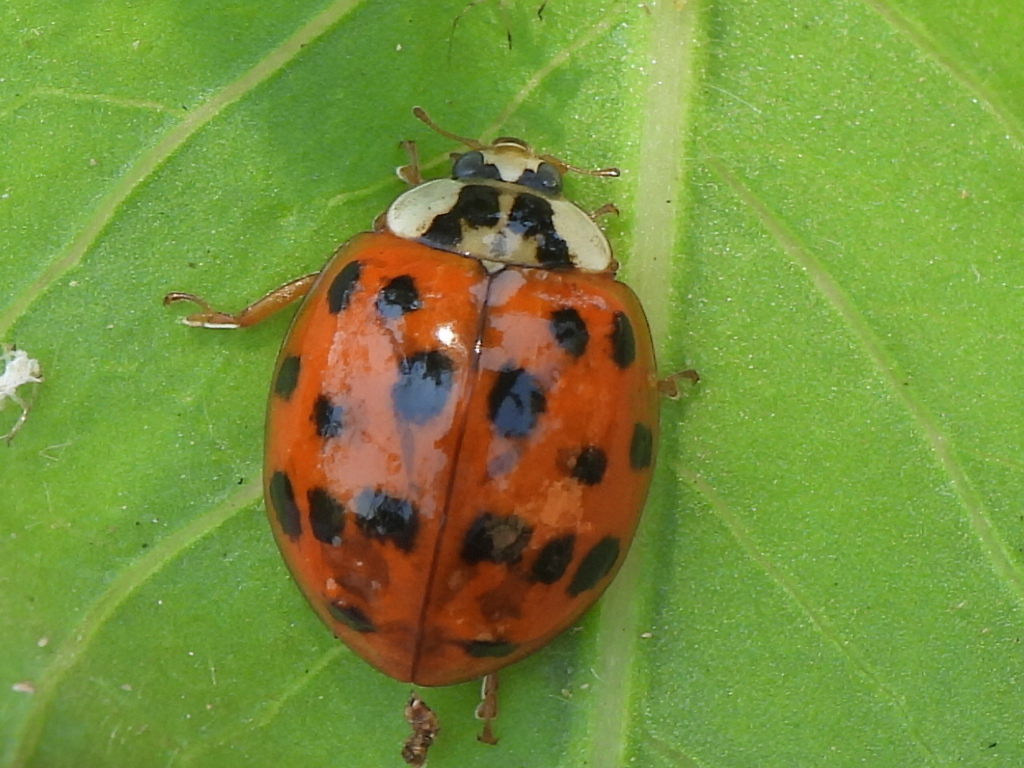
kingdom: Animalia
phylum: Arthropoda
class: Insecta
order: Coleoptera
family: Coccinellidae
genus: Harmonia
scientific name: Harmonia axyridis
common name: Harlequin ladybird
